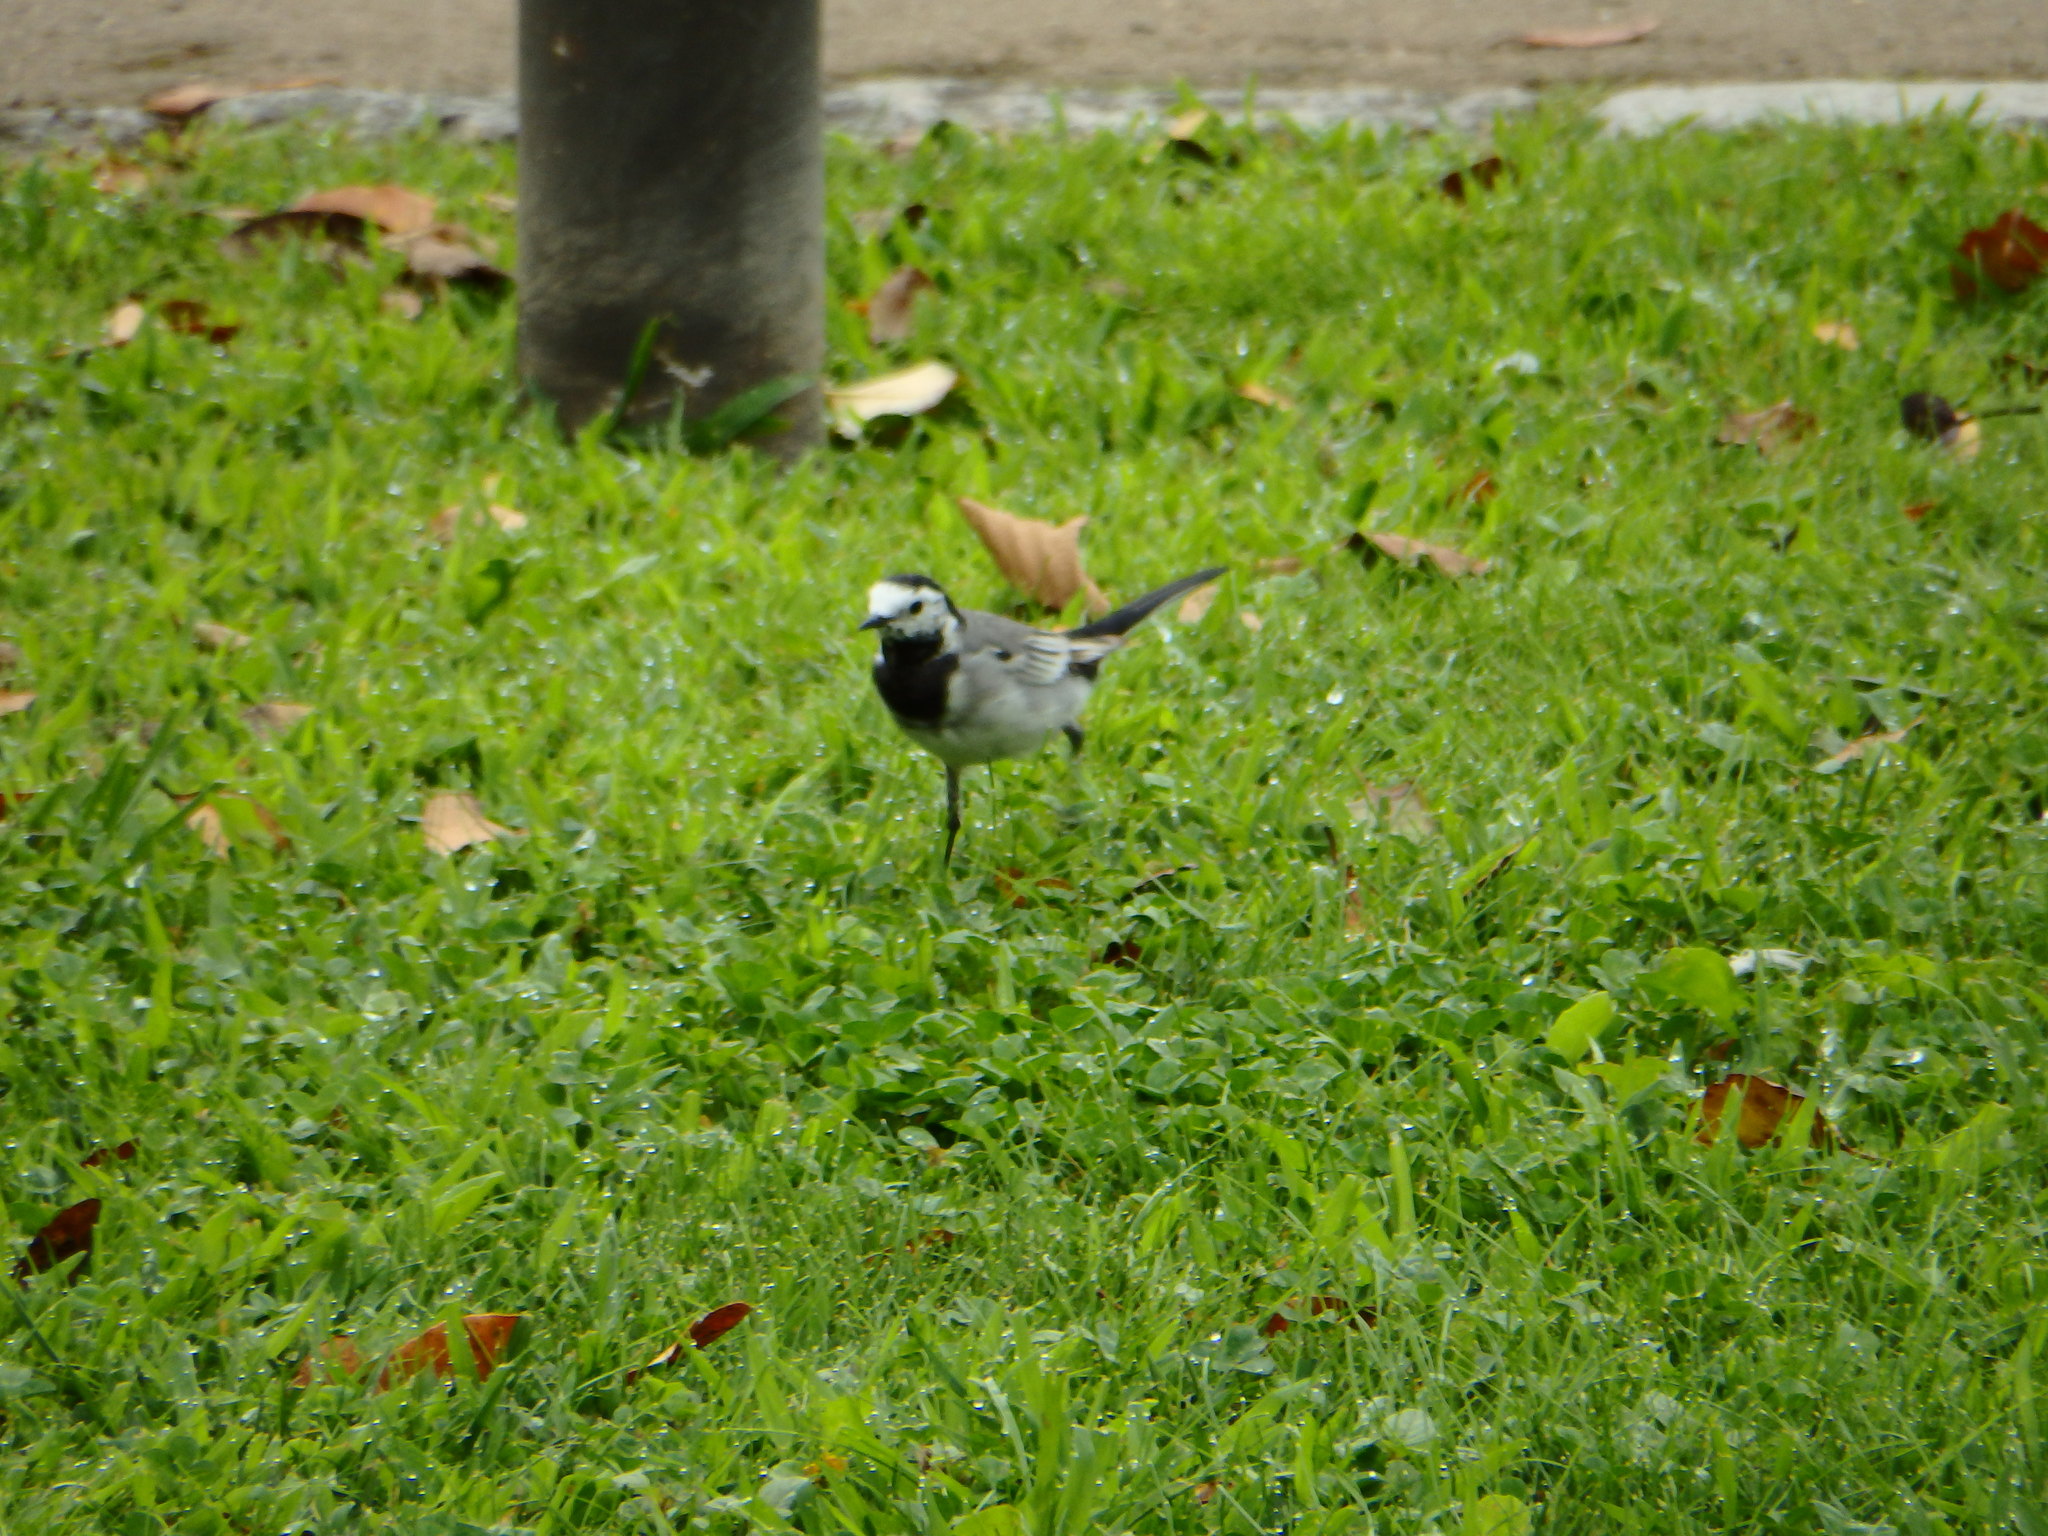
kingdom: Animalia
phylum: Chordata
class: Aves
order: Passeriformes
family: Motacillidae
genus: Motacilla
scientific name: Motacilla alba
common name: White wagtail
